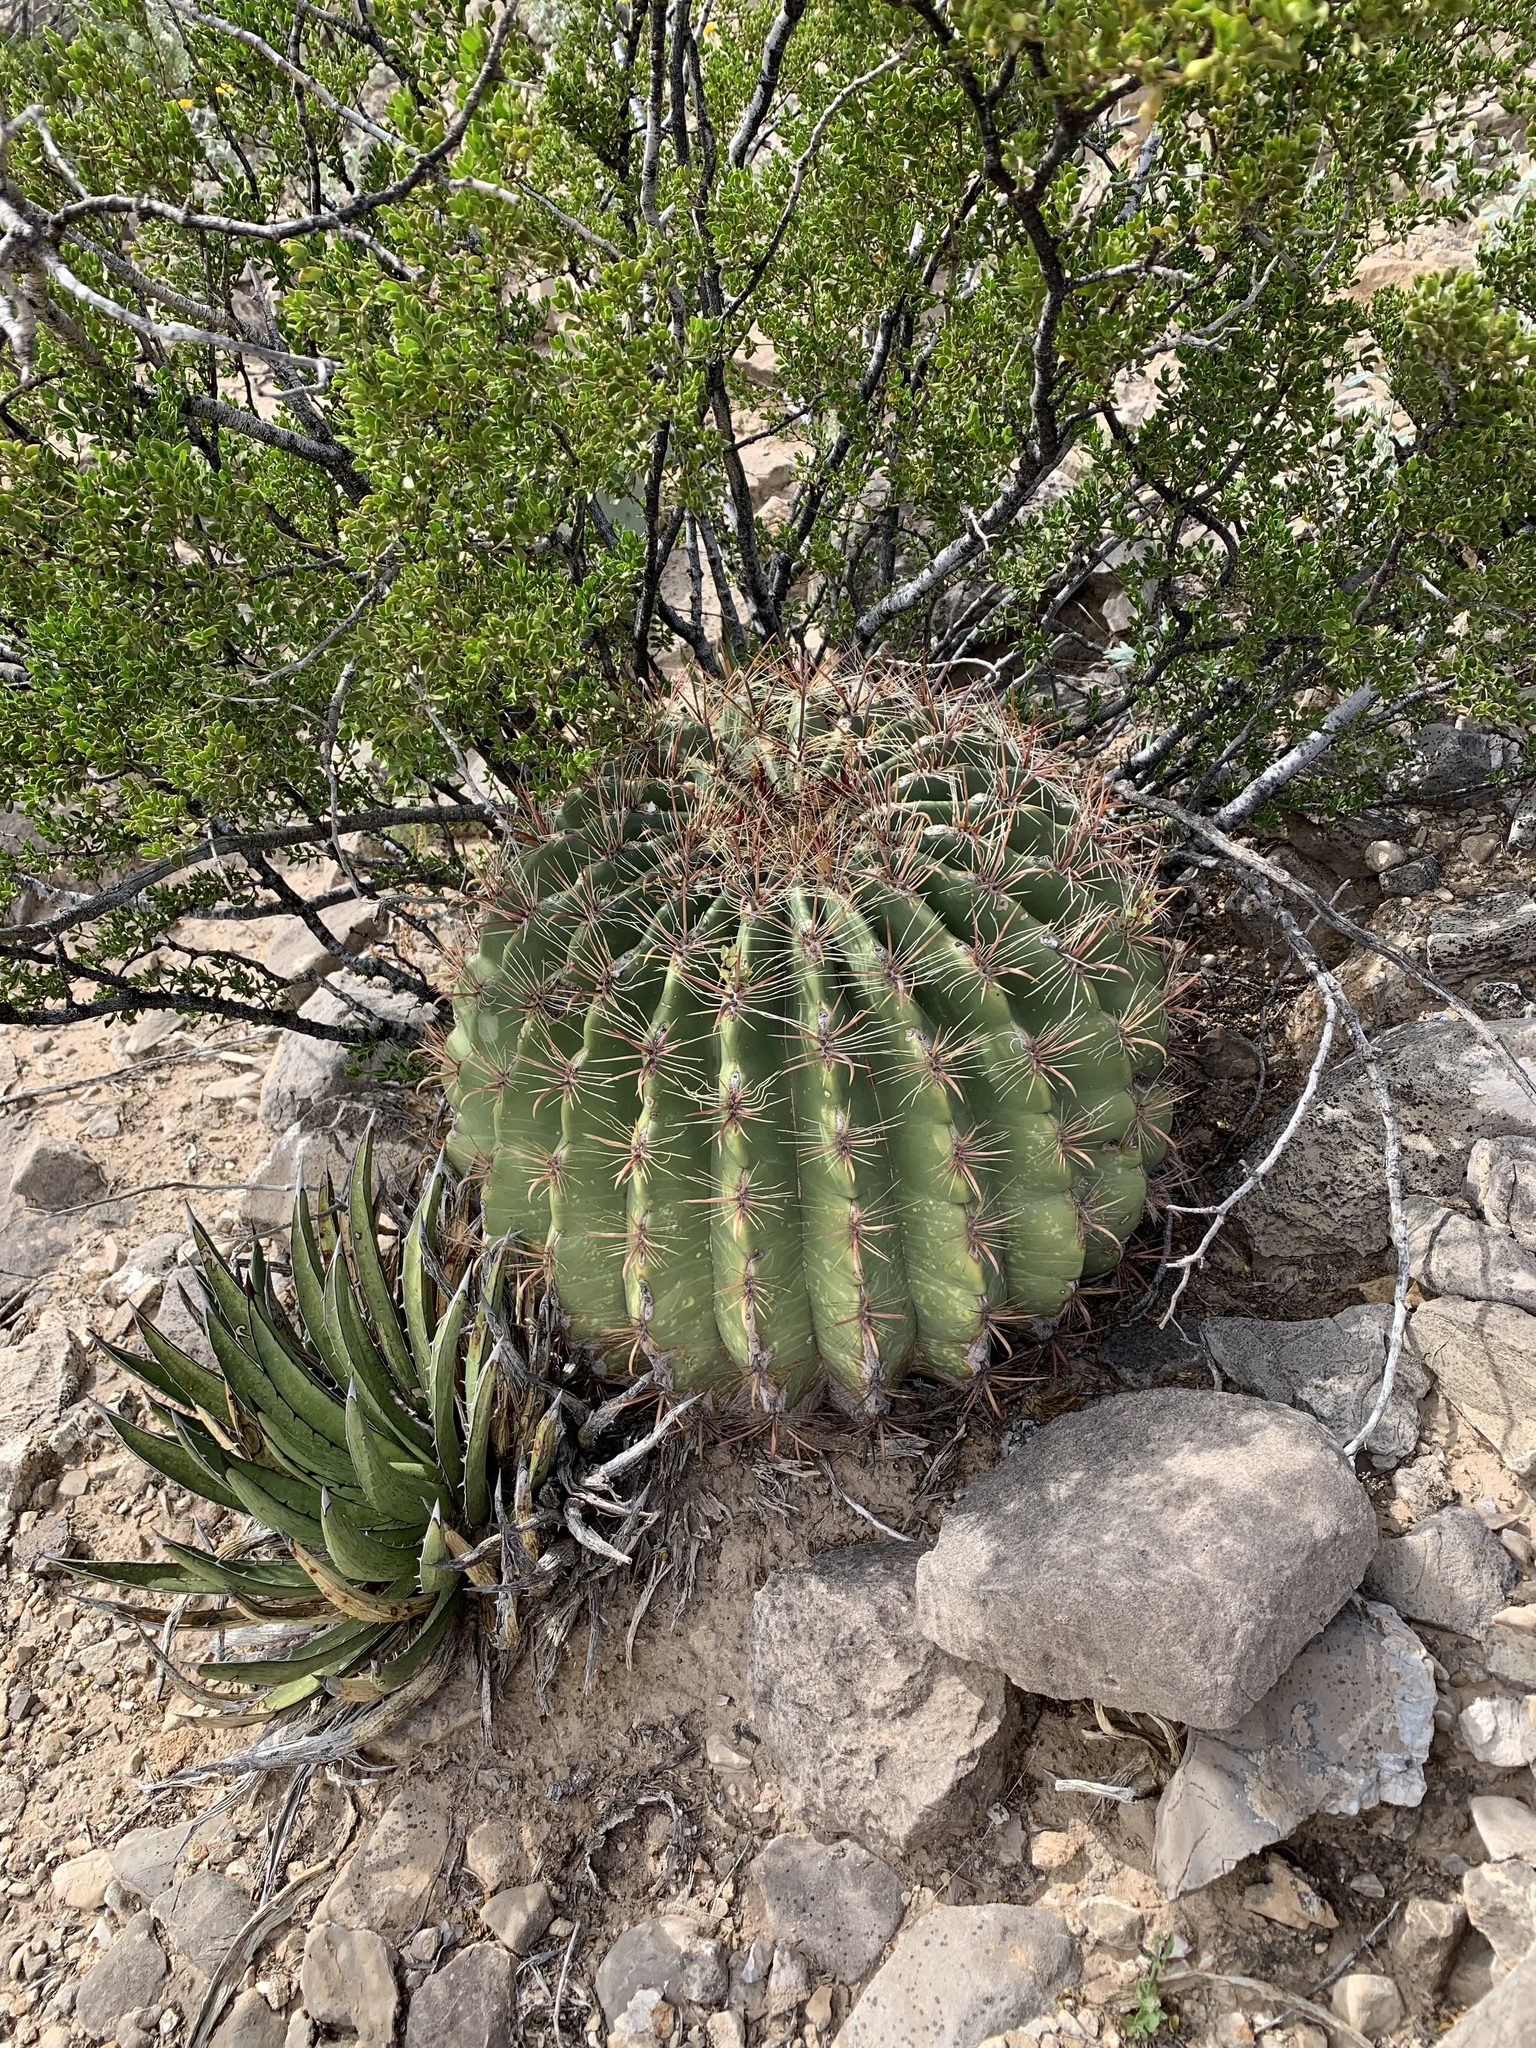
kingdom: Plantae
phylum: Tracheophyta
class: Magnoliopsida
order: Caryophyllales
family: Cactaceae
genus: Ferocactus
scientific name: Ferocactus wislizeni
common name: Candy barrel cactus
